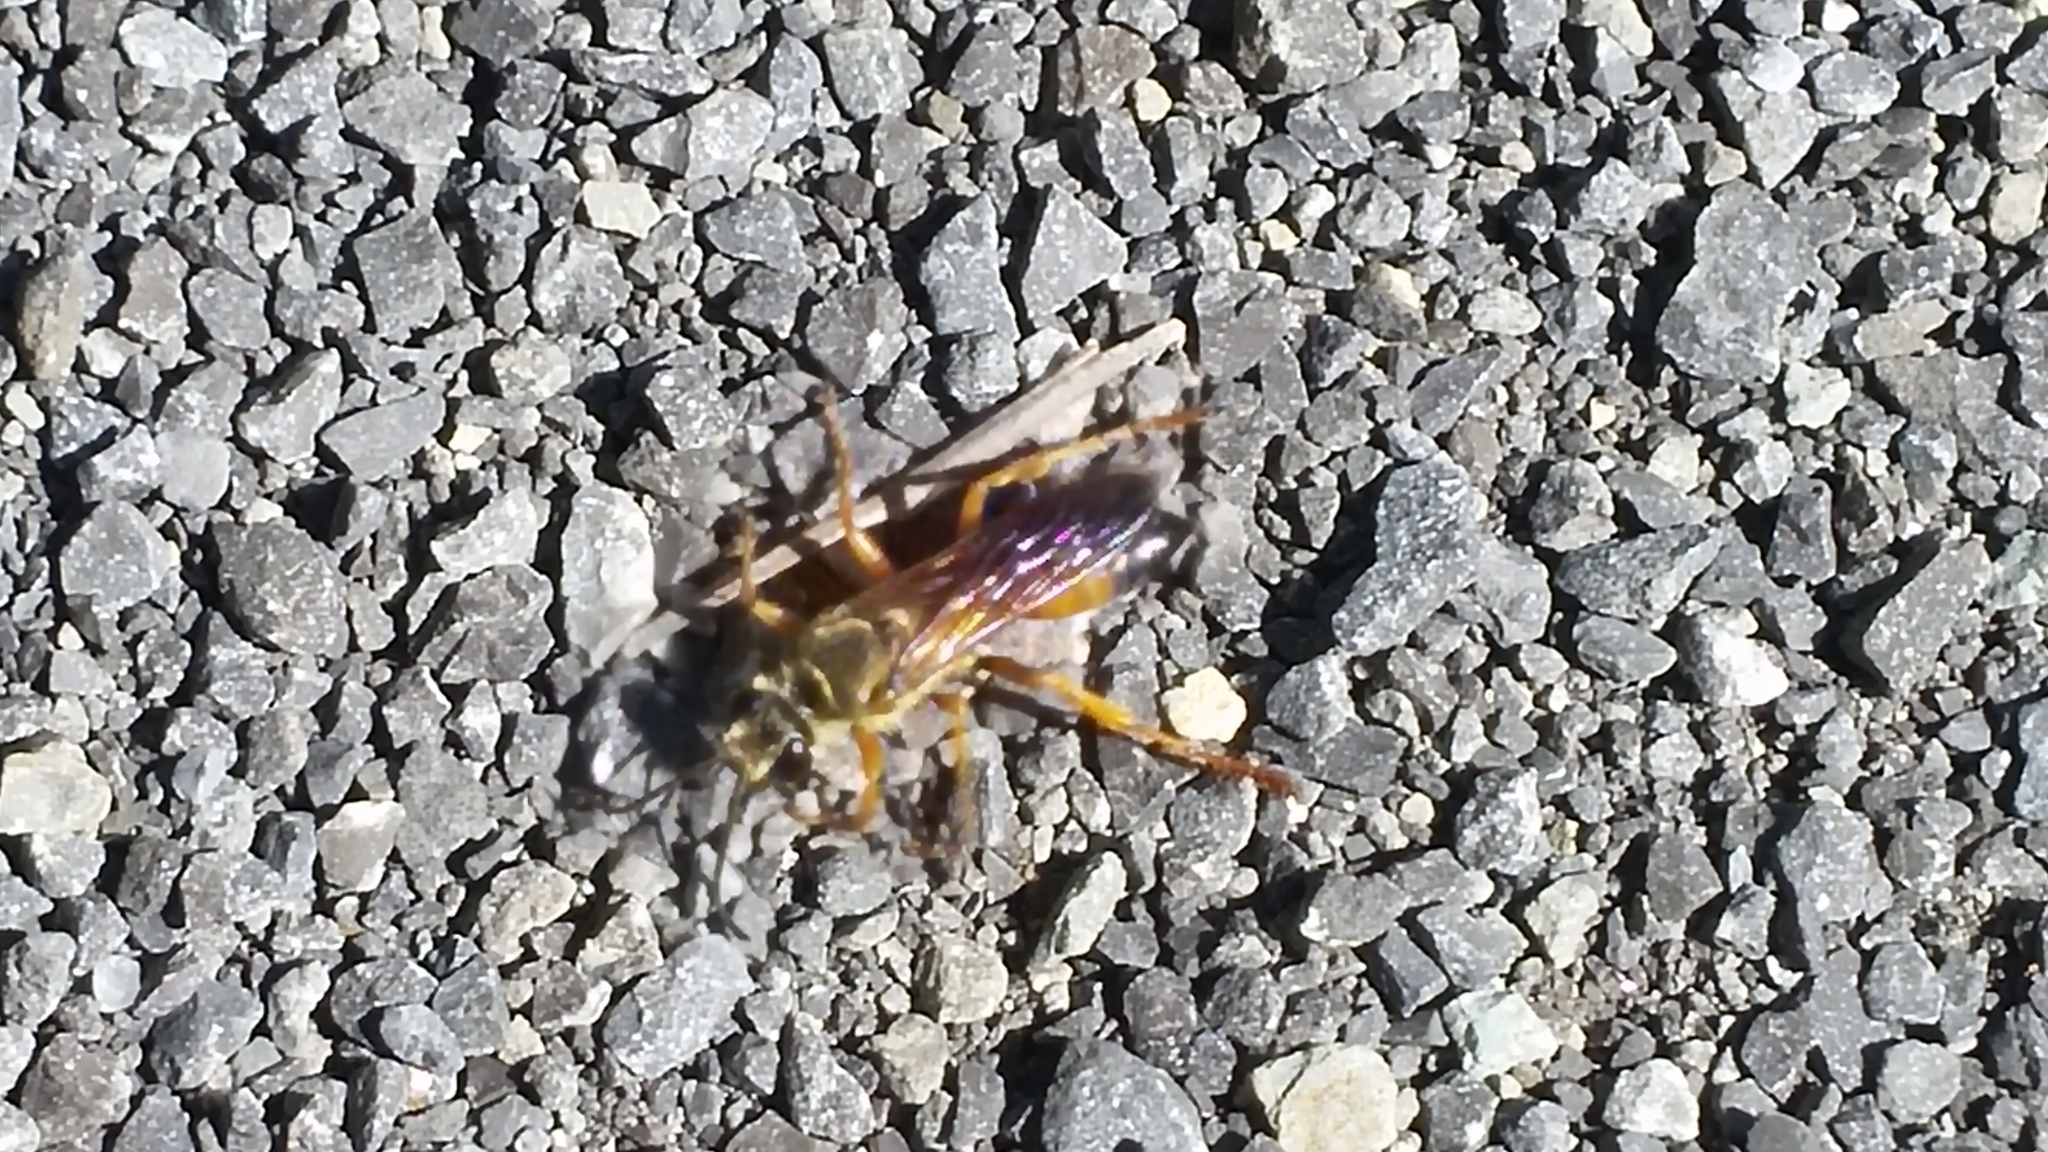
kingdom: Animalia
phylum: Arthropoda
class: Insecta
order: Hymenoptera
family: Sphecidae
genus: Sphex
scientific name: Sphex ichneumoneus
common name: Great golden digger wasp
